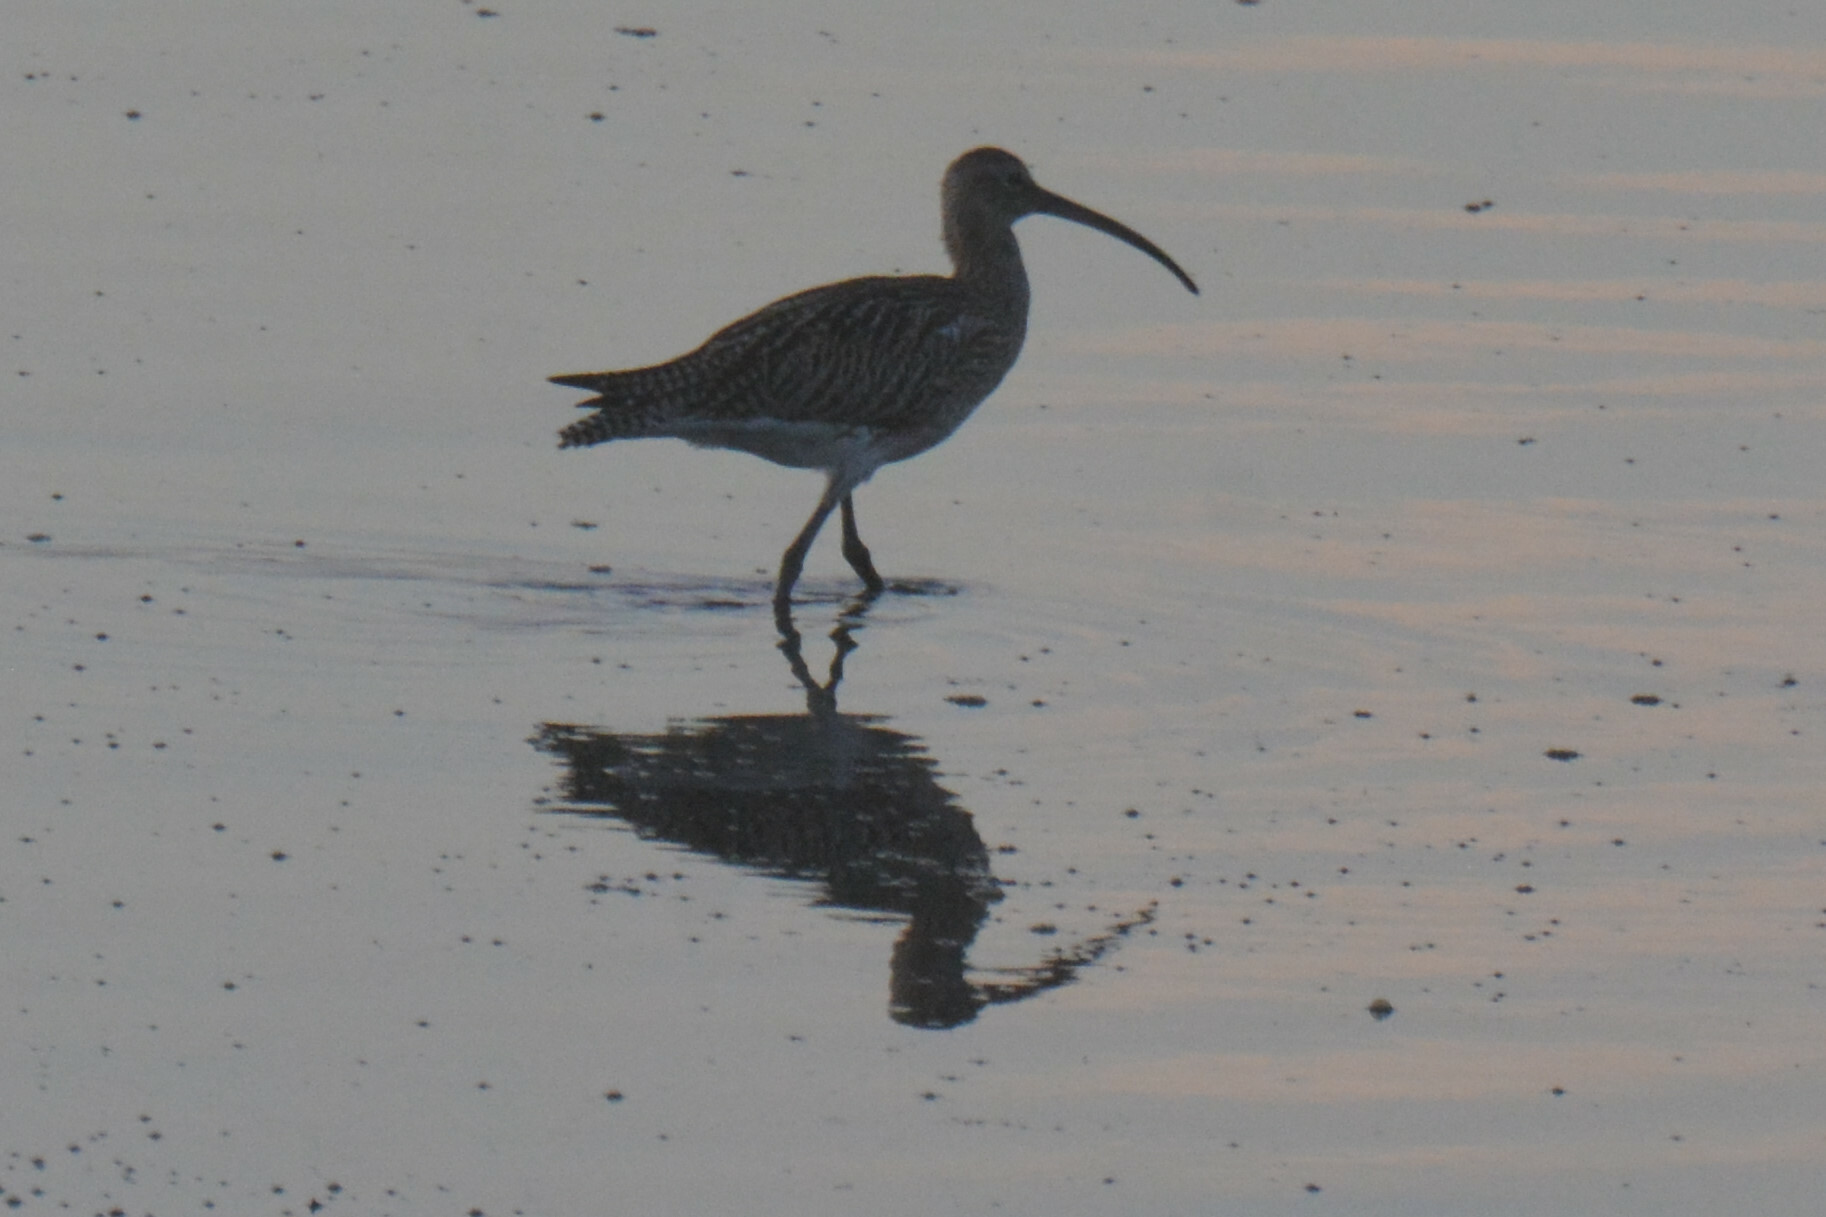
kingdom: Animalia
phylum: Chordata
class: Aves
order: Charadriiformes
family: Scolopacidae
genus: Numenius
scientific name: Numenius arquata
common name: Eurasian curlew
